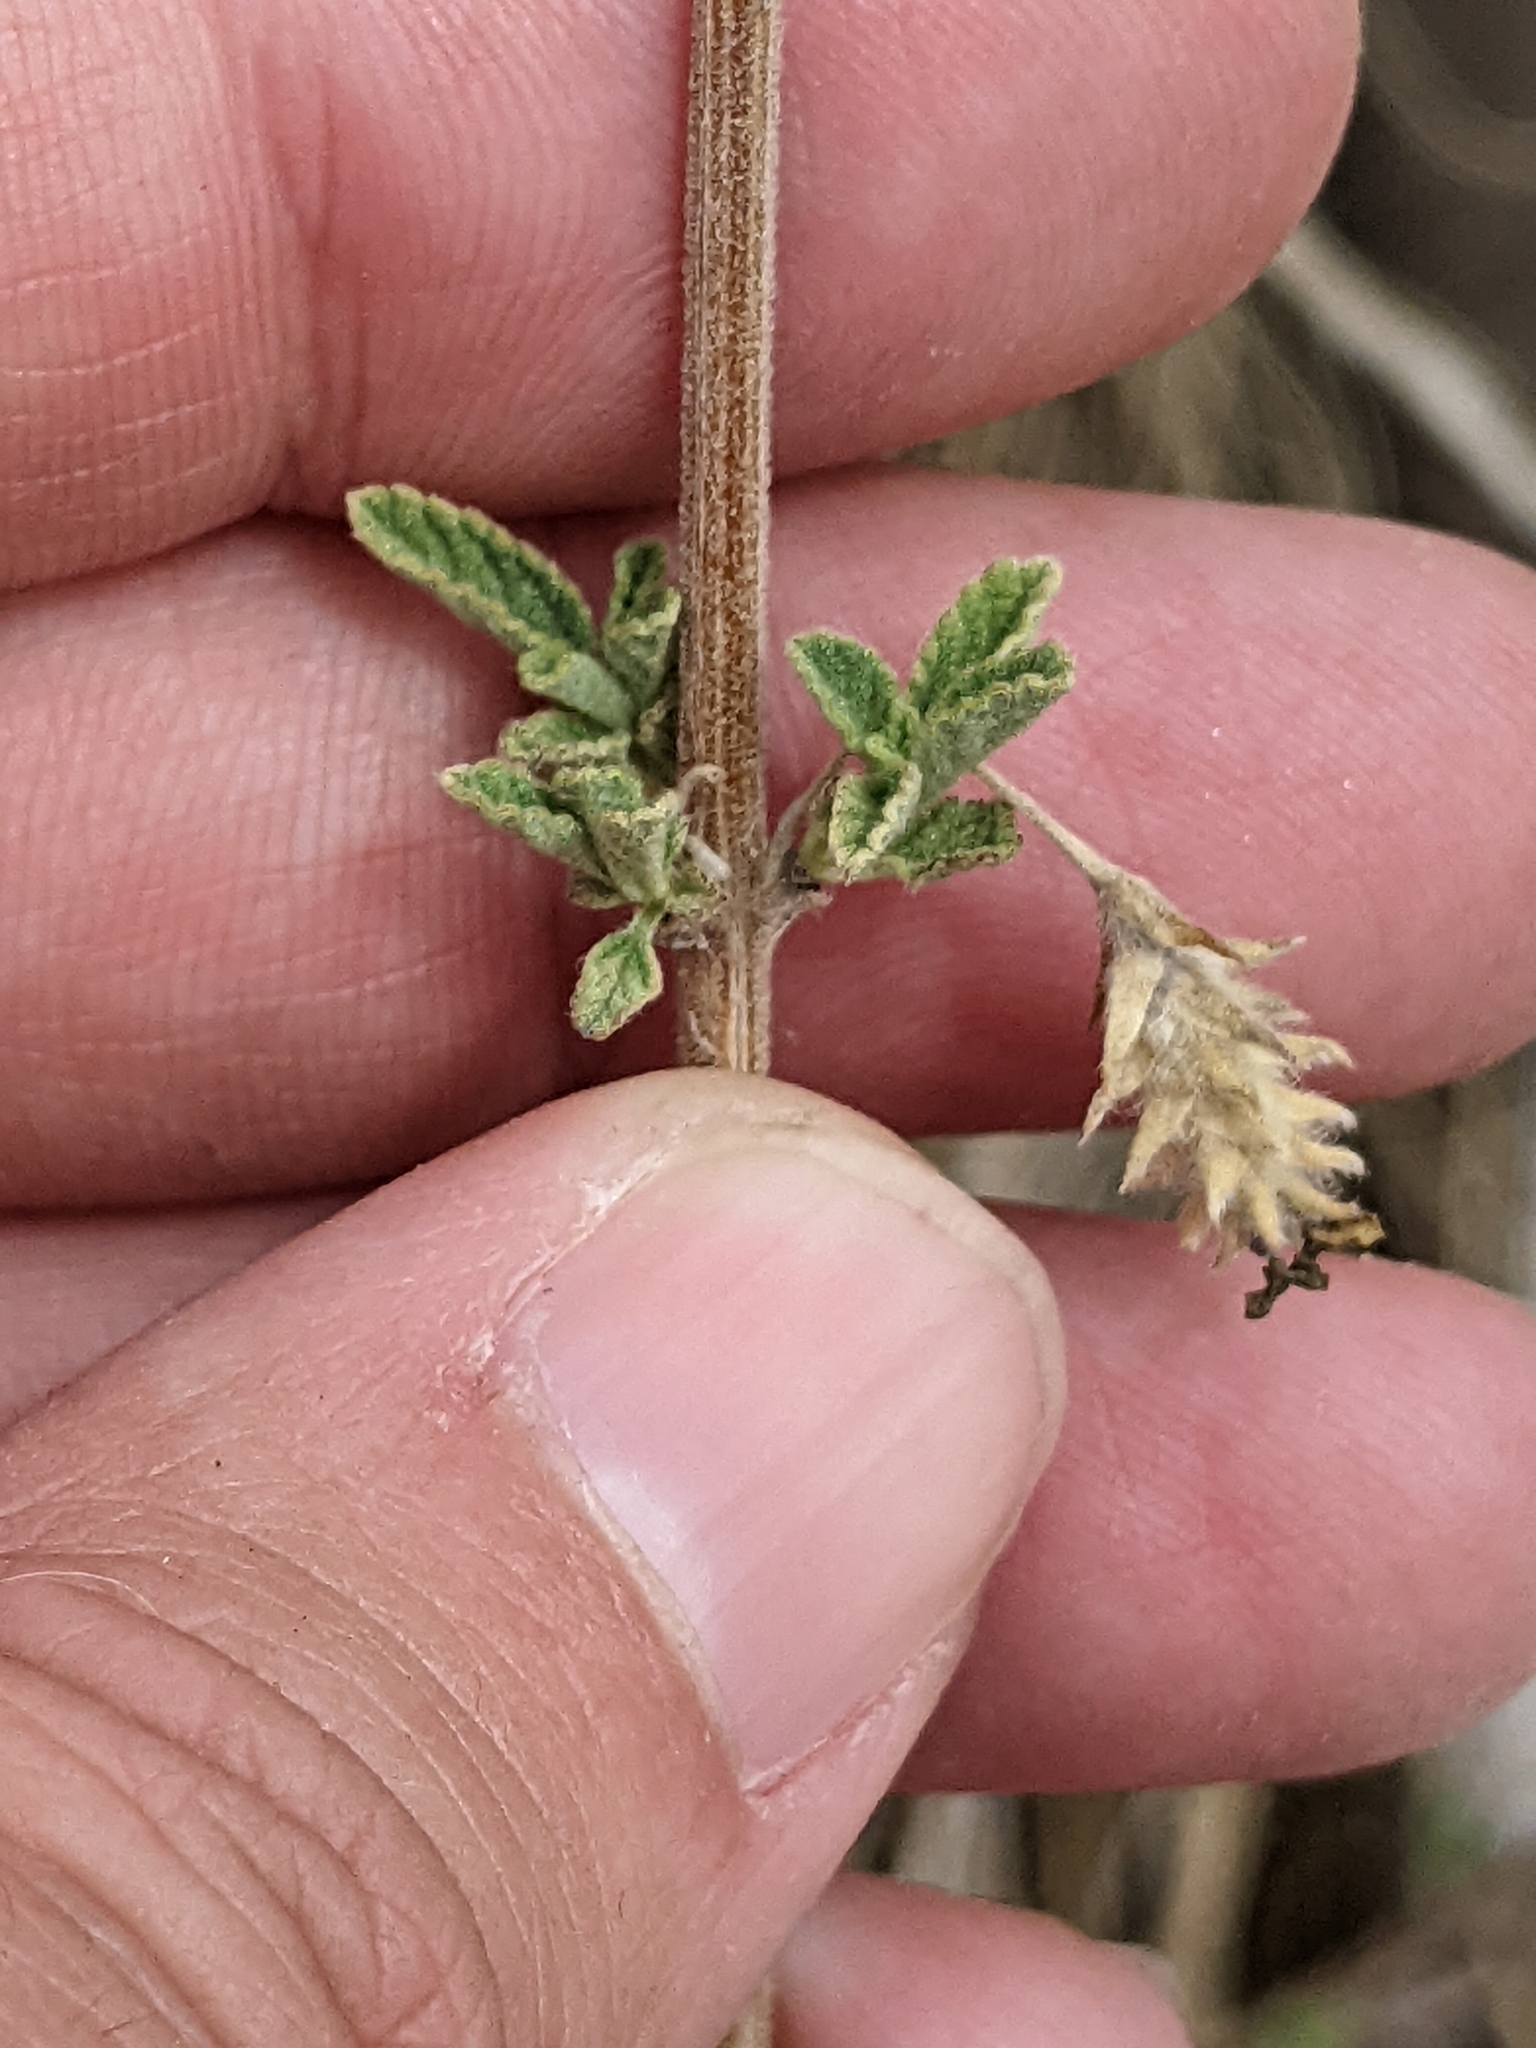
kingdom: Plantae
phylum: Tracheophyta
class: Magnoliopsida
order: Lamiales
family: Verbenaceae
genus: Lippia
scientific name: Lippia origanoides
